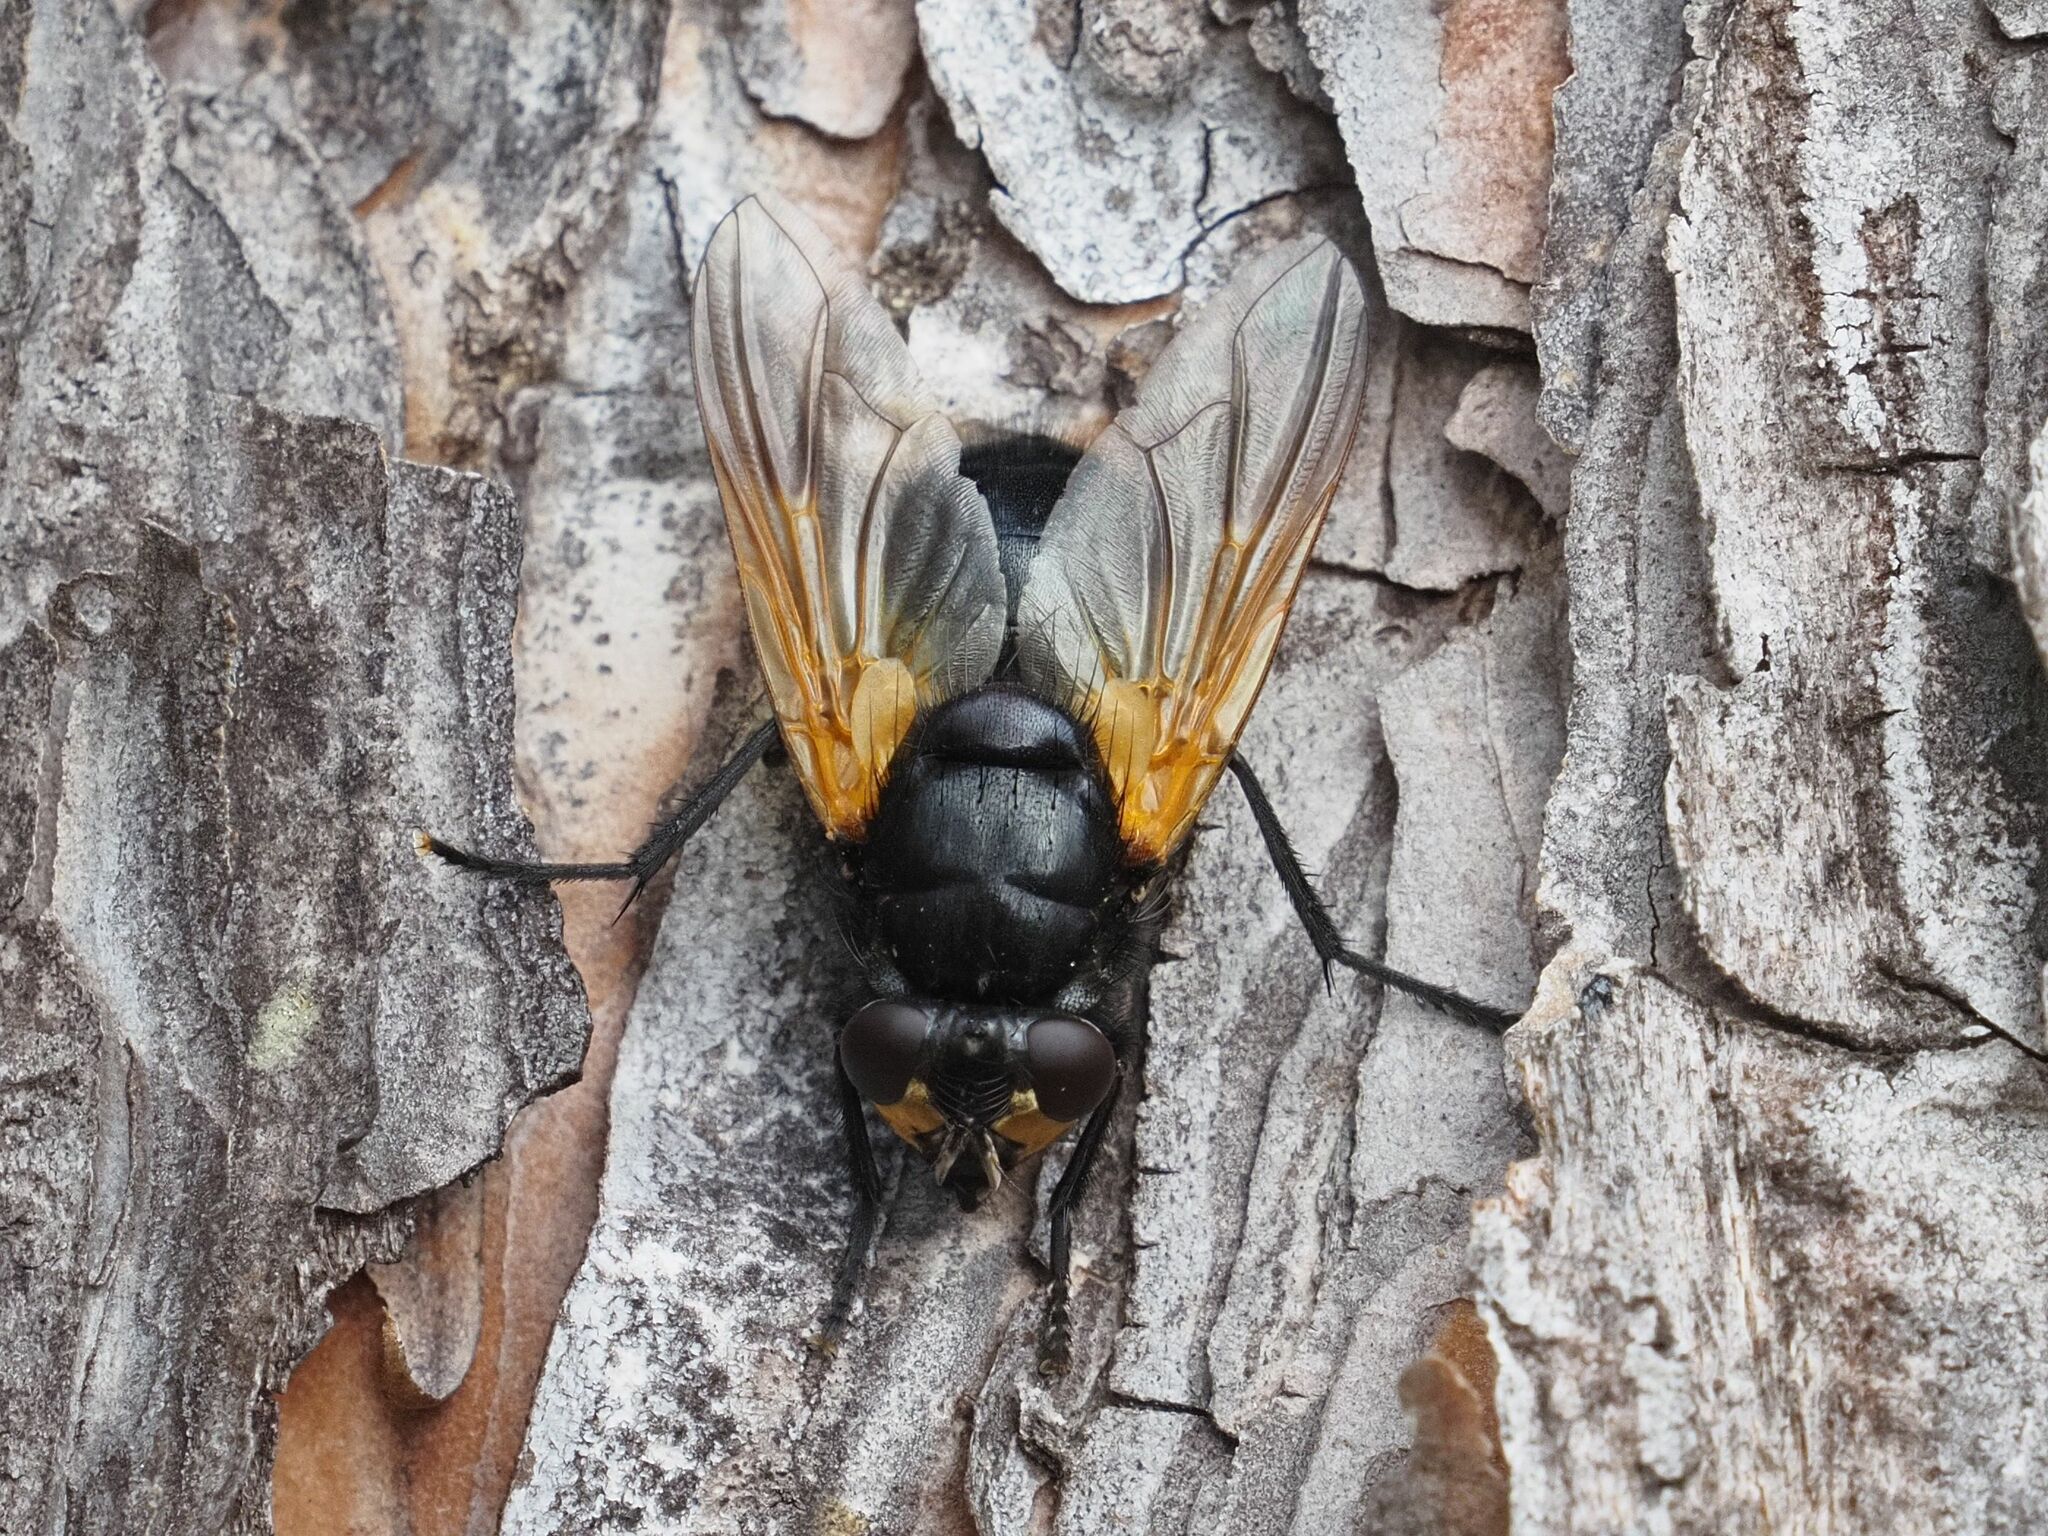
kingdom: Animalia
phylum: Arthropoda
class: Insecta
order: Diptera
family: Muscidae
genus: Mesembrina
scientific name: Mesembrina meridiana
